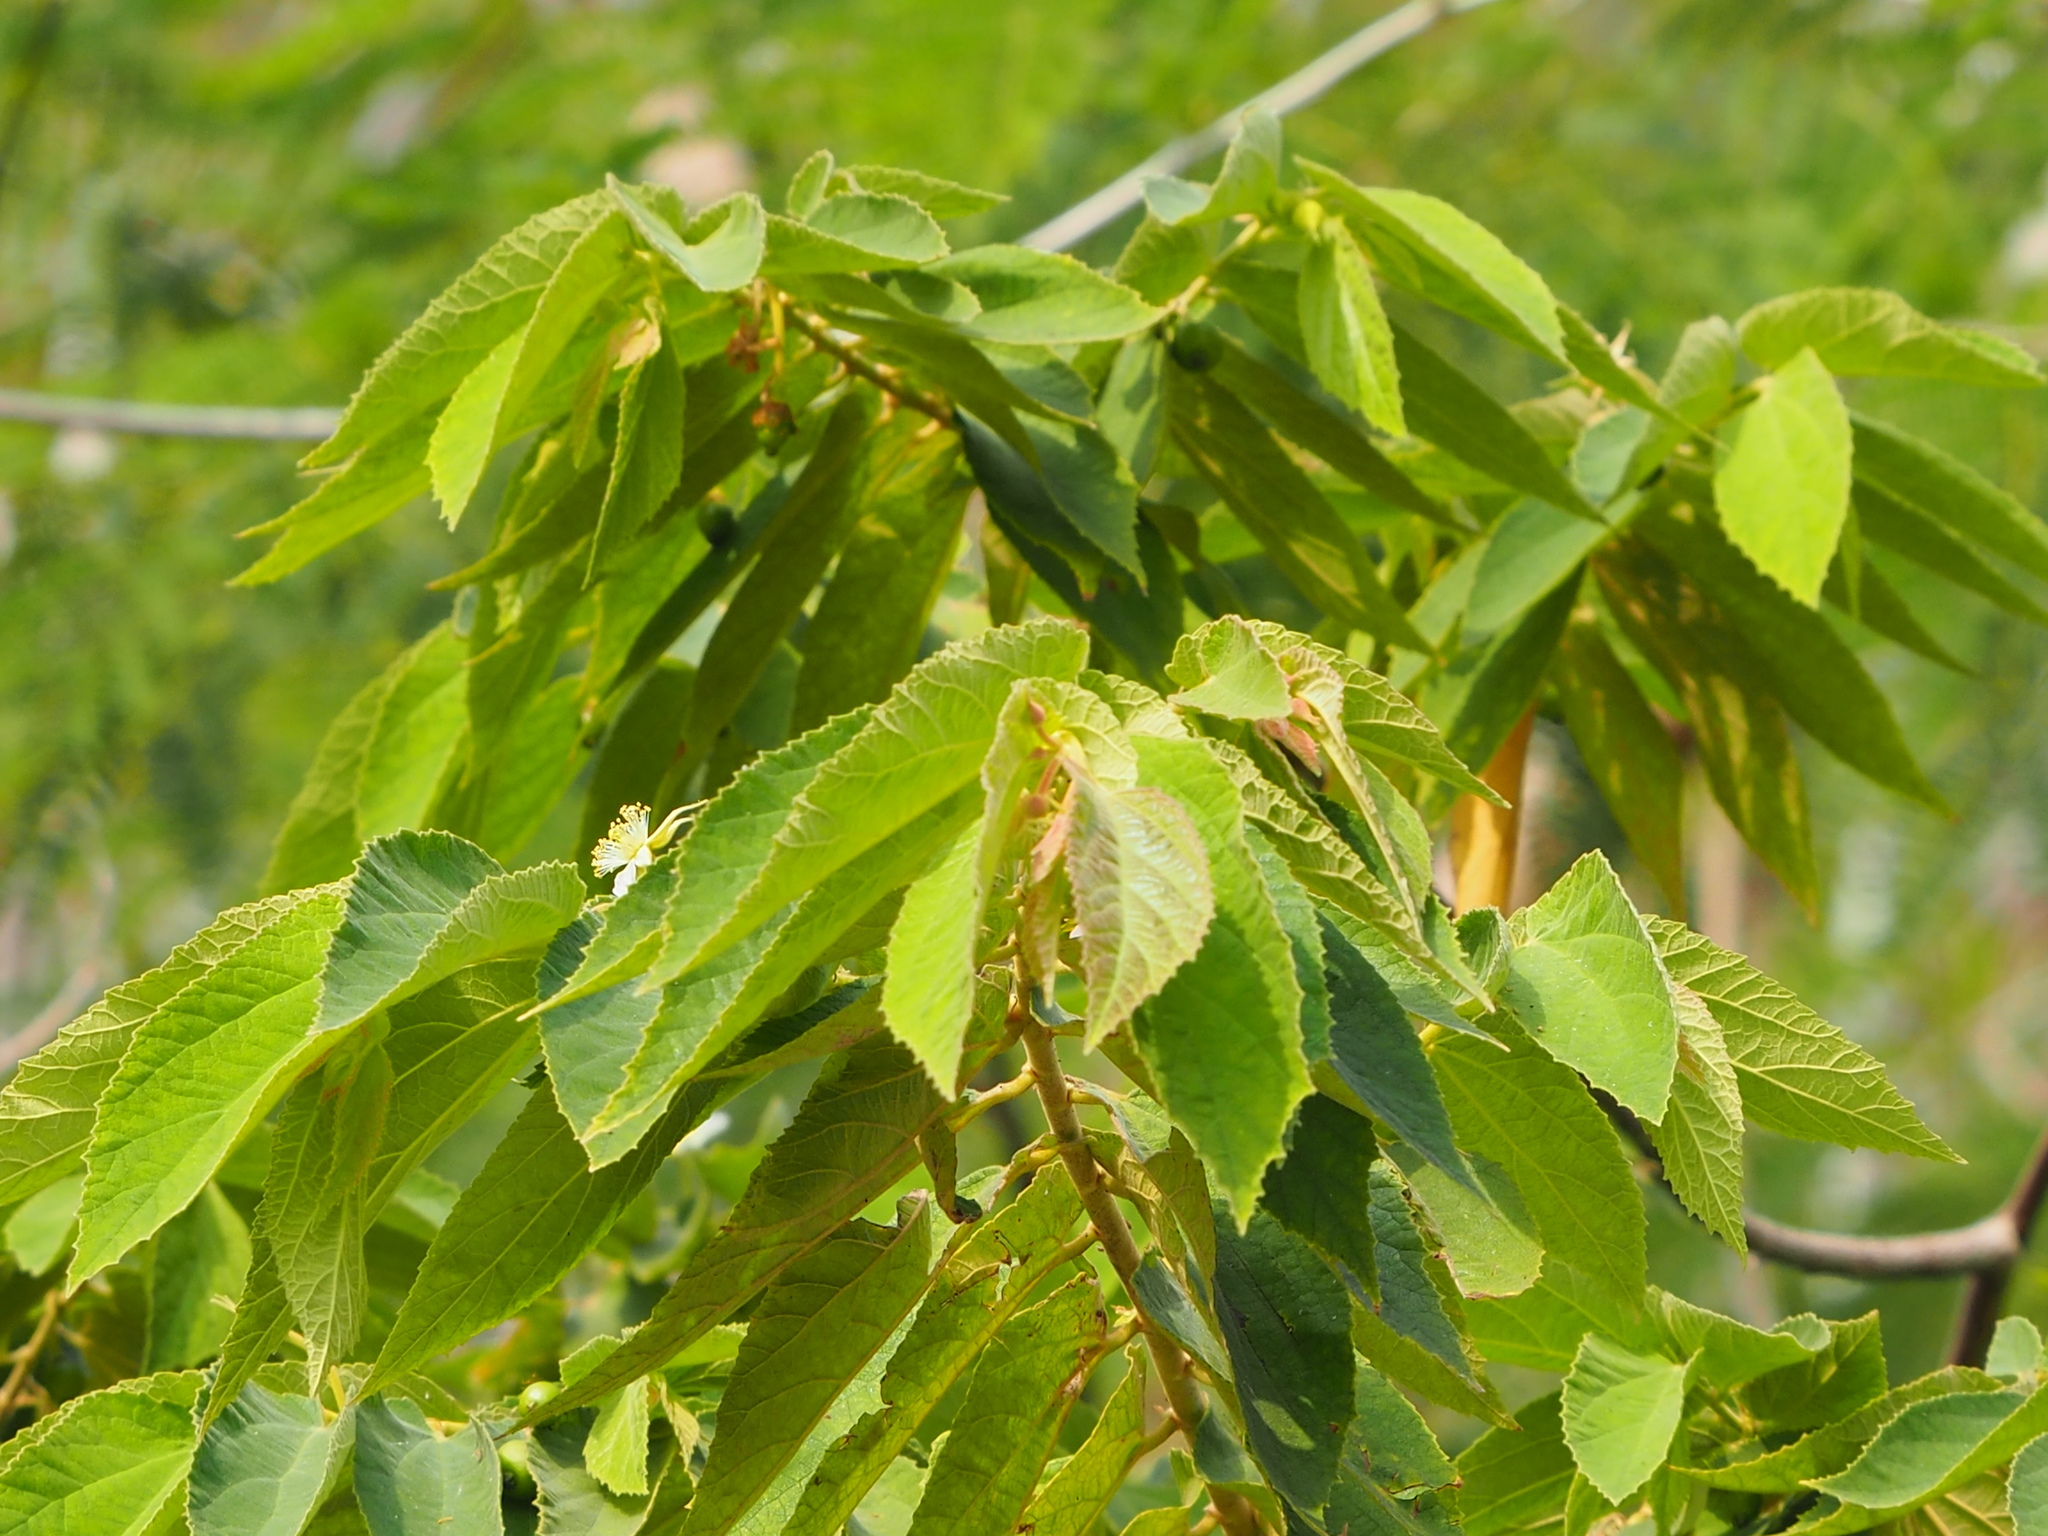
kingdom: Plantae
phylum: Tracheophyta
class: Magnoliopsida
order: Malvales
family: Muntingiaceae
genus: Muntingia
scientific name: Muntingia calabura
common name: Strawberrytree
